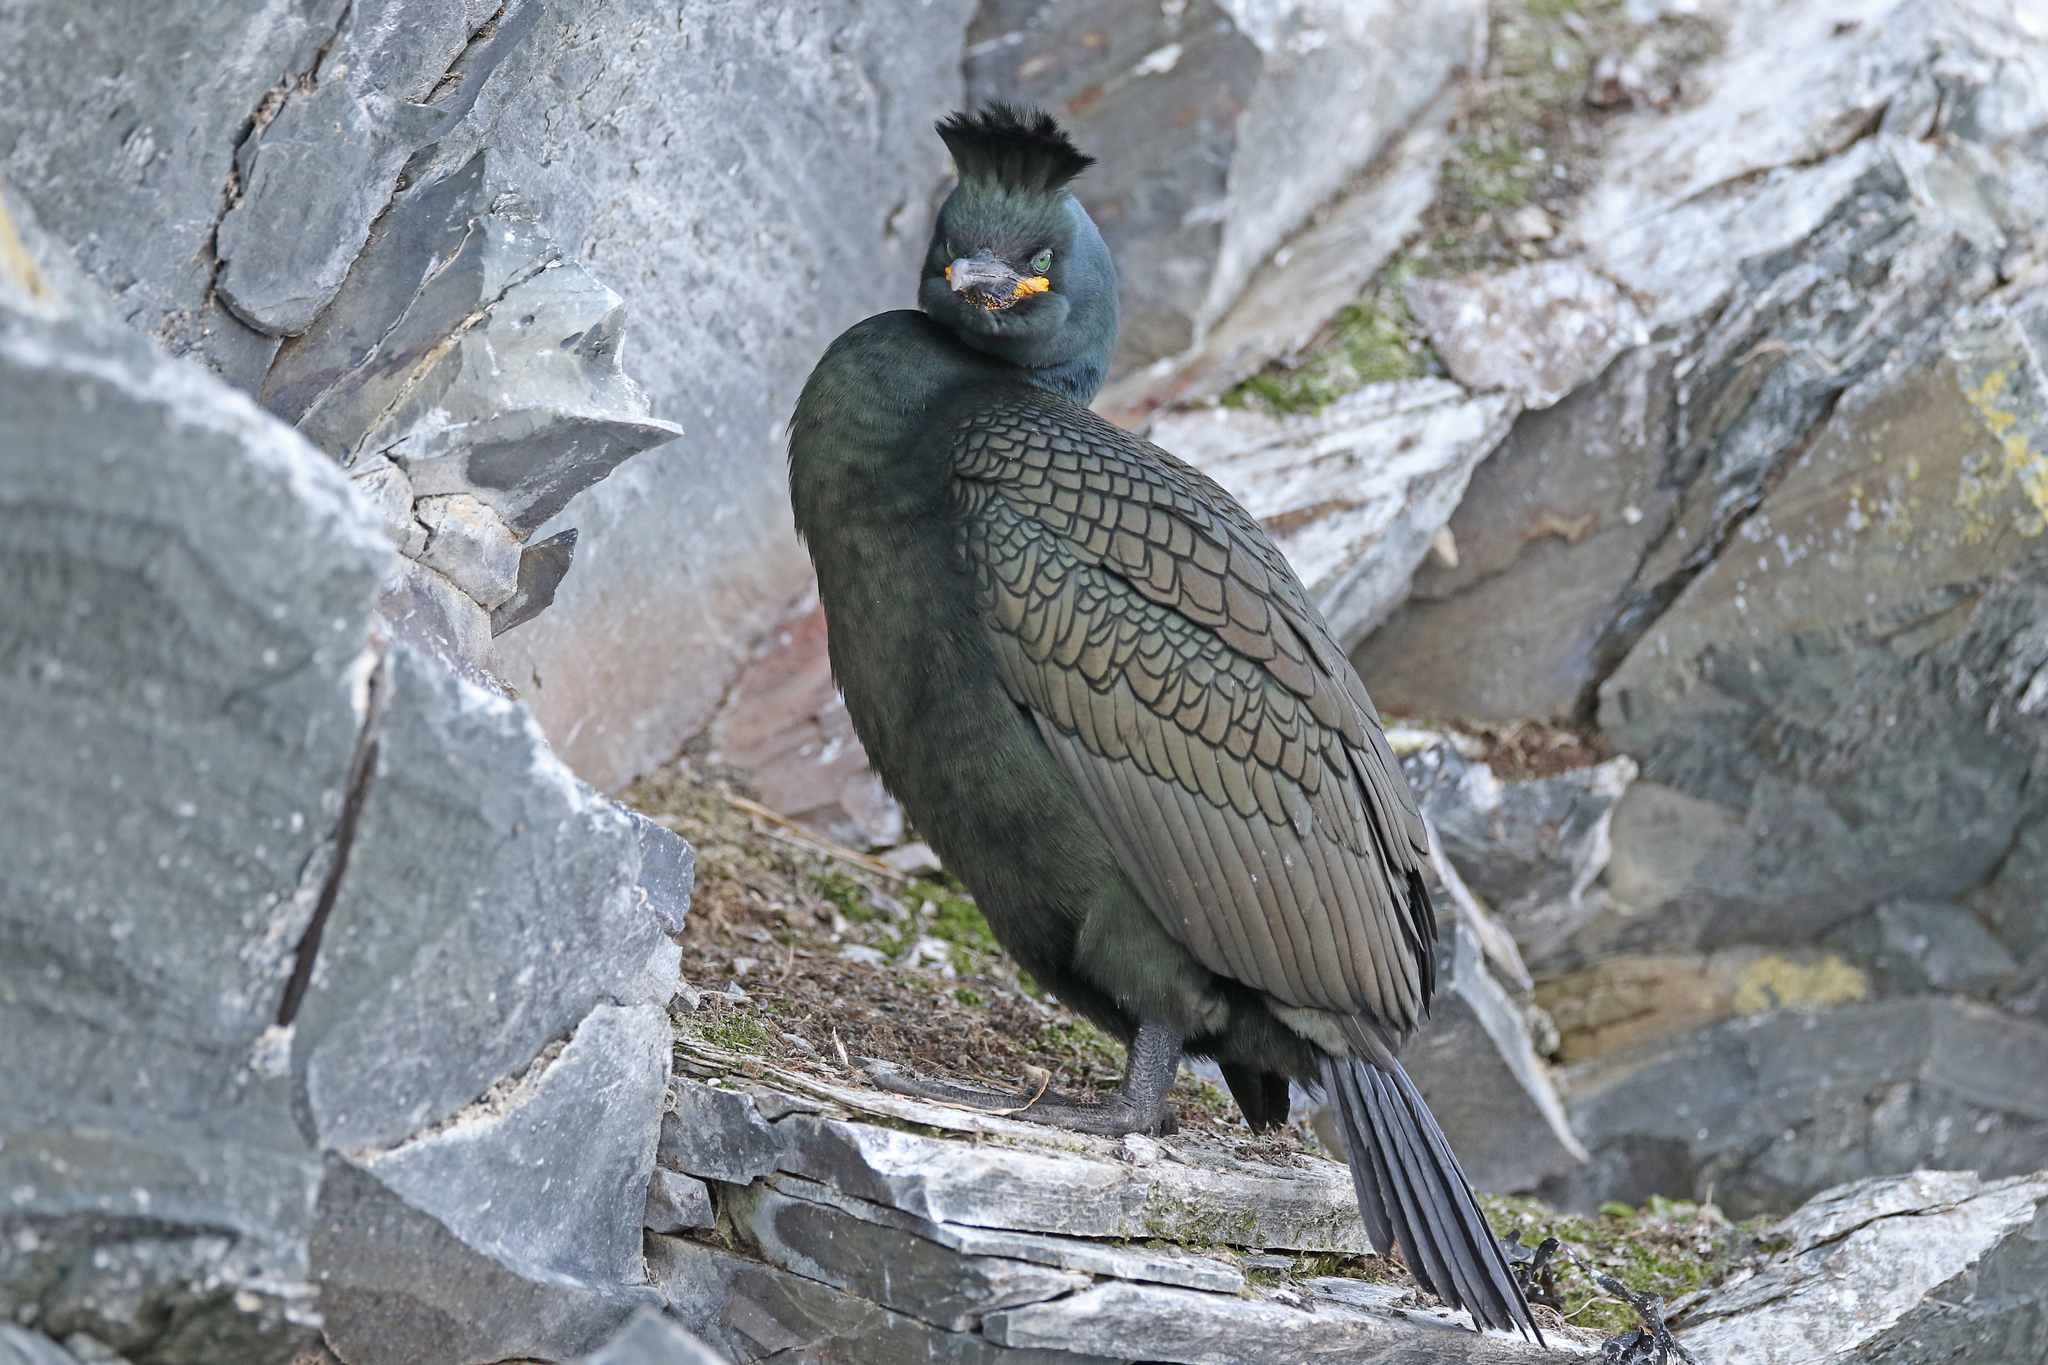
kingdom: Animalia
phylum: Chordata
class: Aves
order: Suliformes
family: Phalacrocoracidae
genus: Phalacrocorax
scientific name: Phalacrocorax aristotelis
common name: European shag
